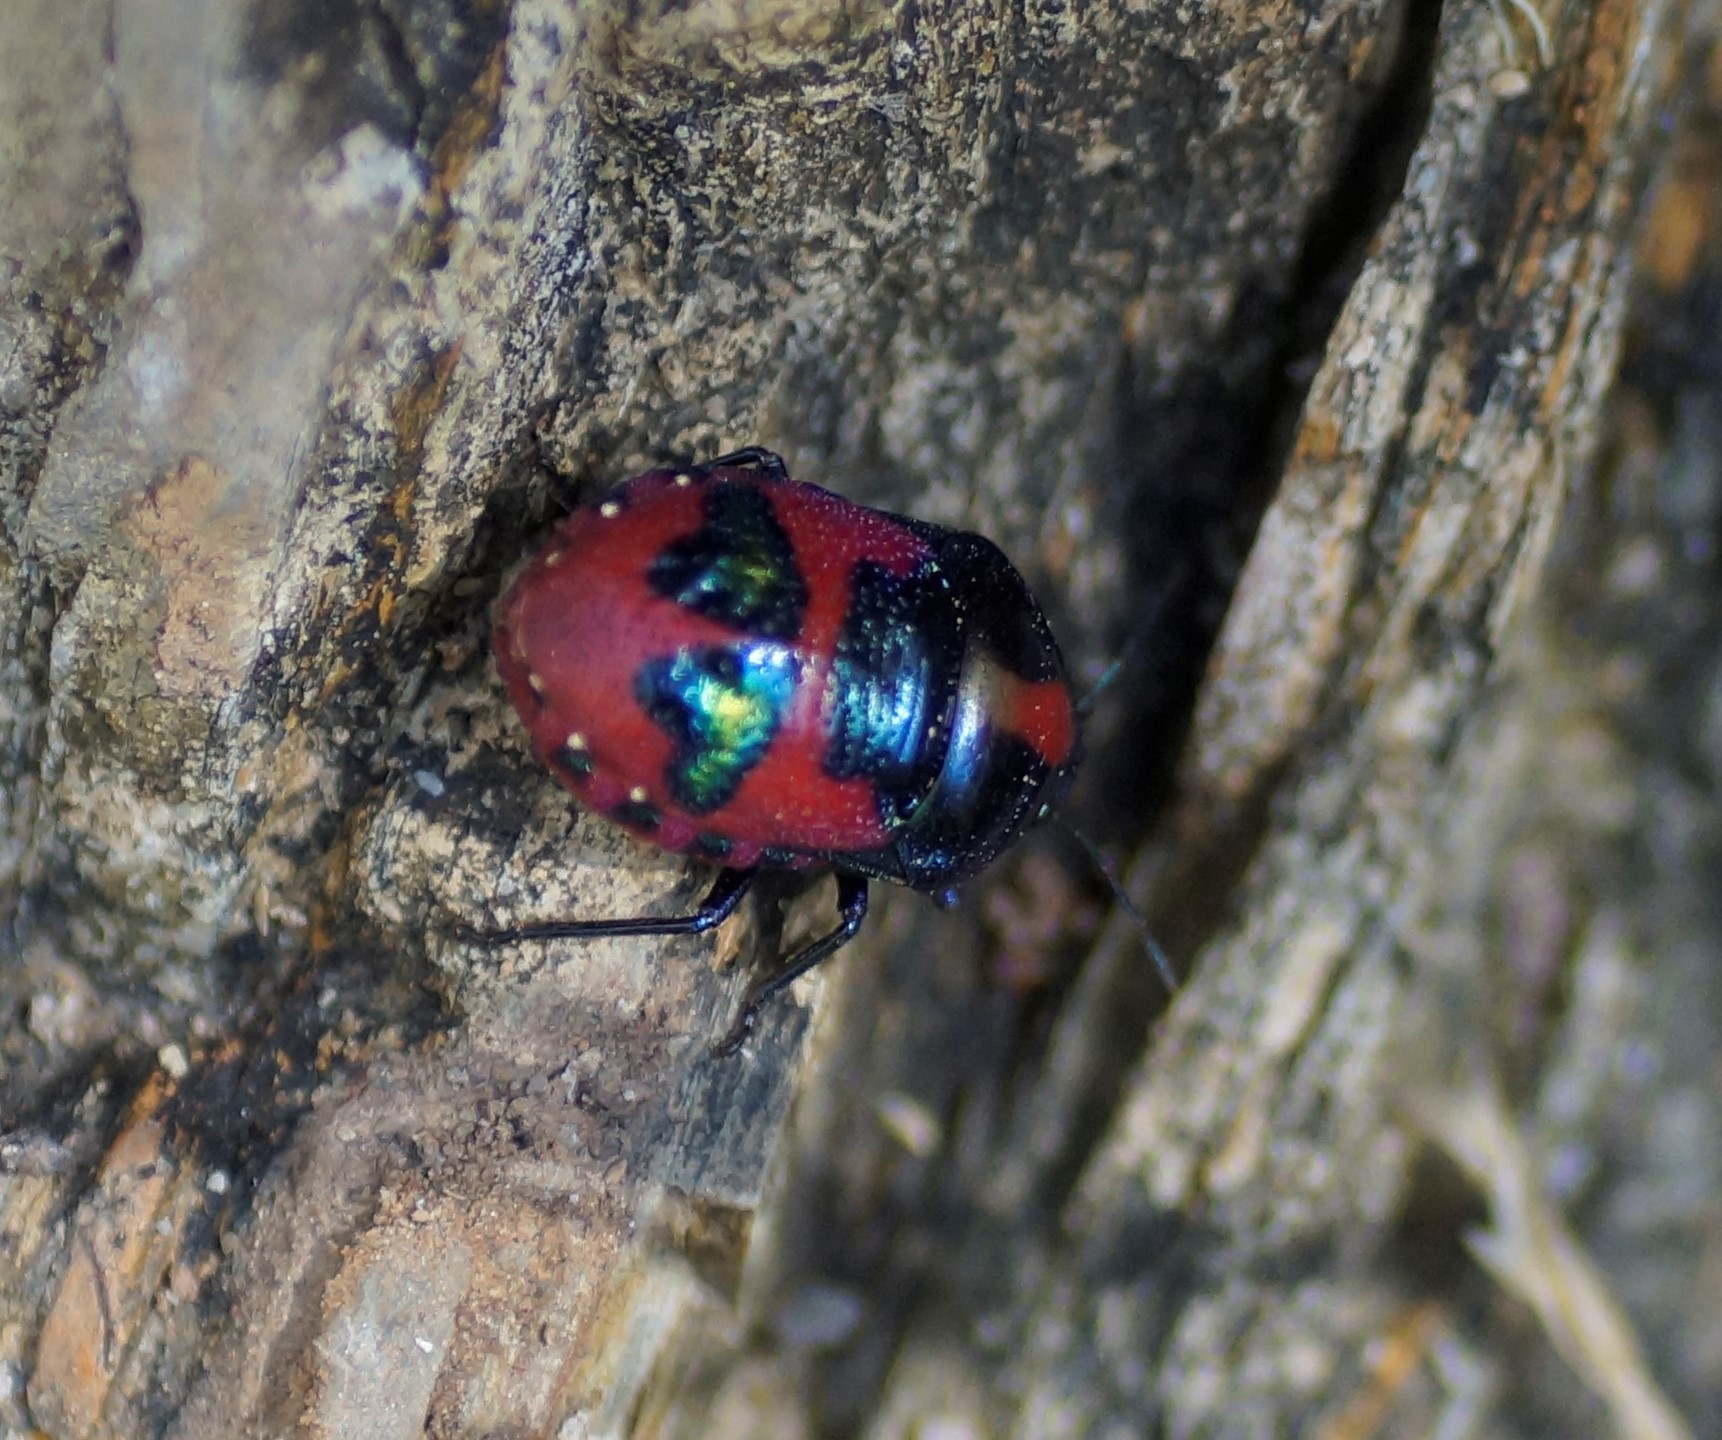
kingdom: Animalia
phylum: Arthropoda
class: Insecta
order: Hemiptera
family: Scutelleridae
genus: Choerocoris
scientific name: Choerocoris paganus
